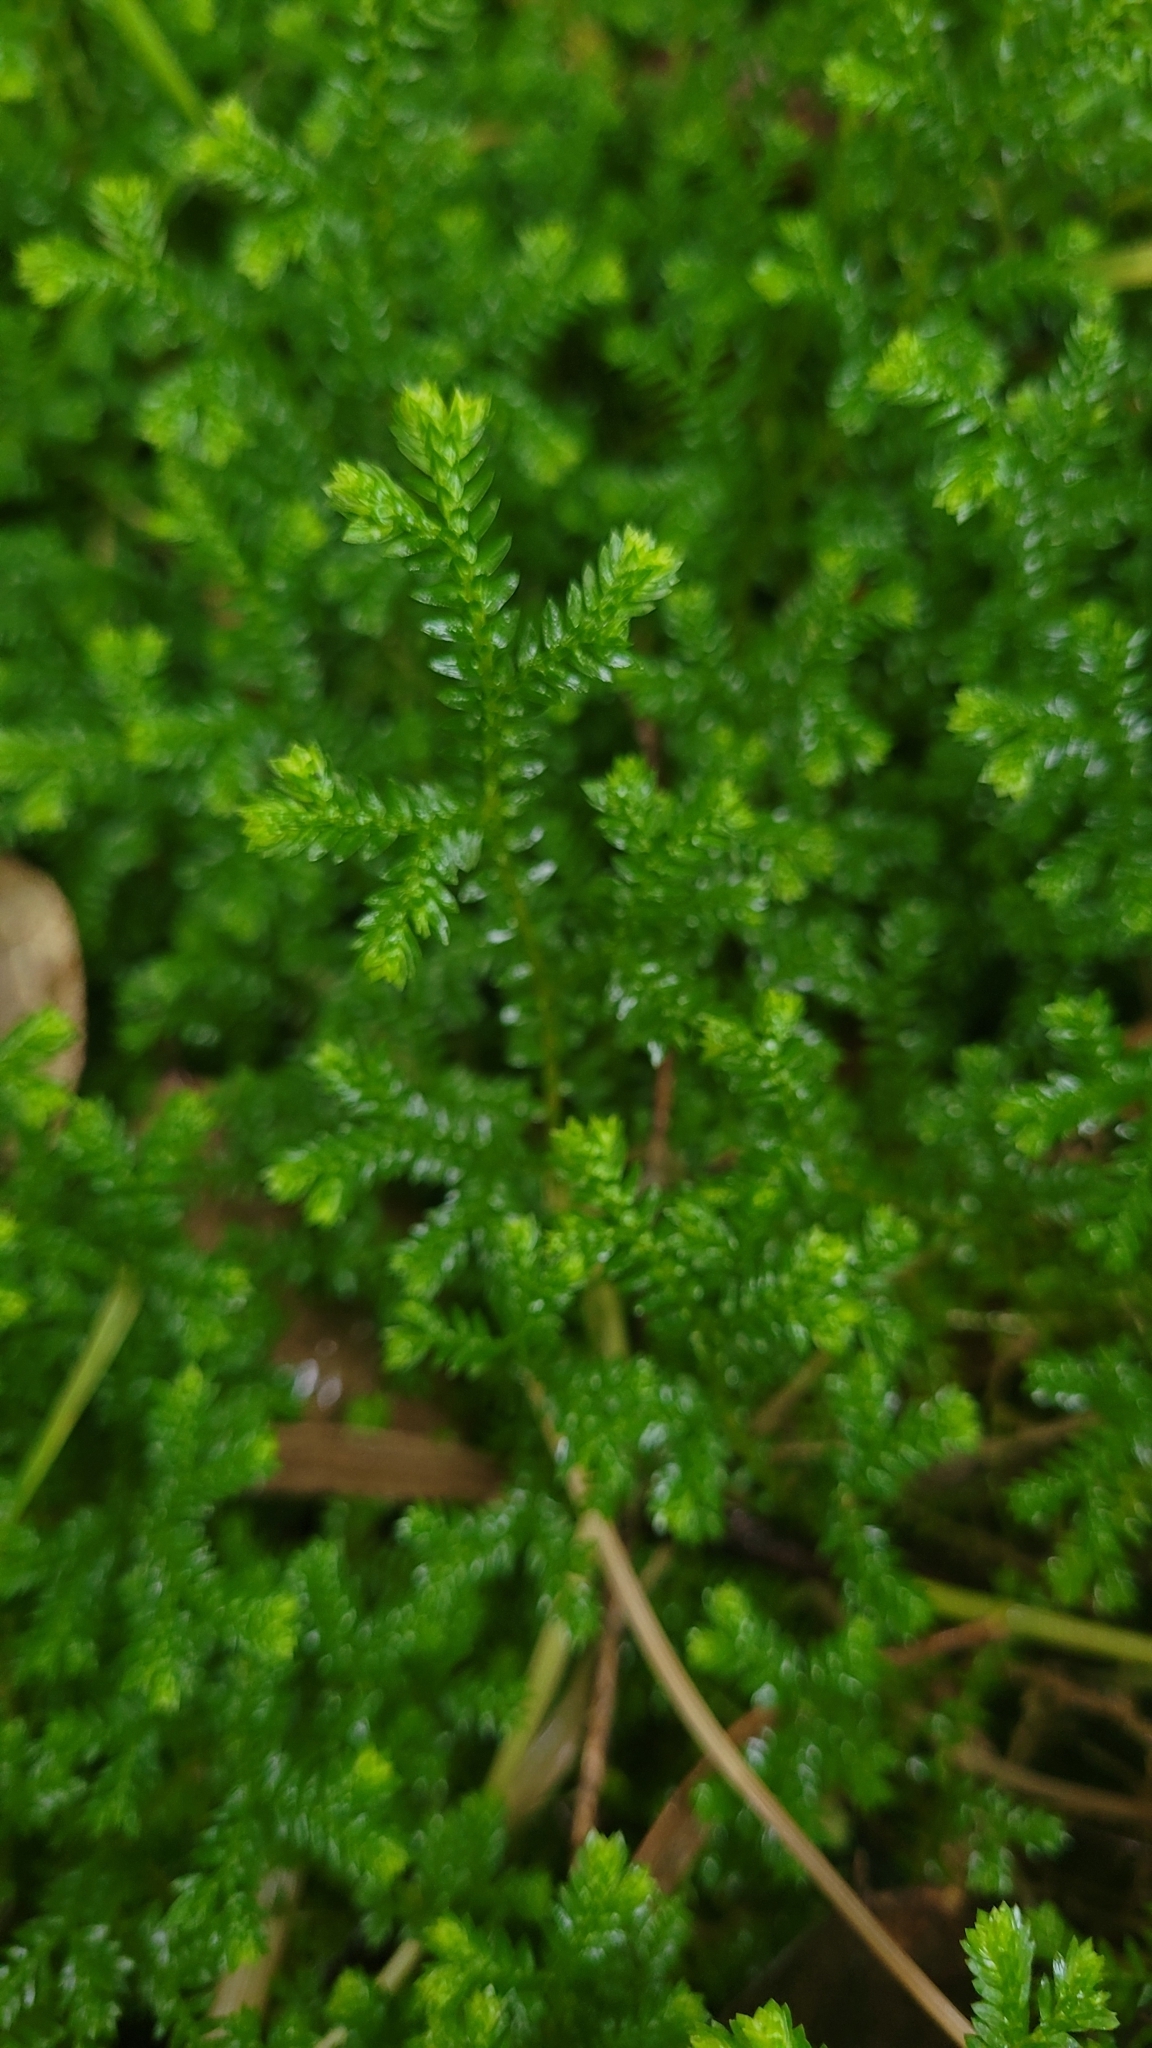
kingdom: Plantae
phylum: Tracheophyta
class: Lycopodiopsida
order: Selaginellales
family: Selaginellaceae
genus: Selaginella
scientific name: Selaginella kraussiana
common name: Krauss' spikemoss
